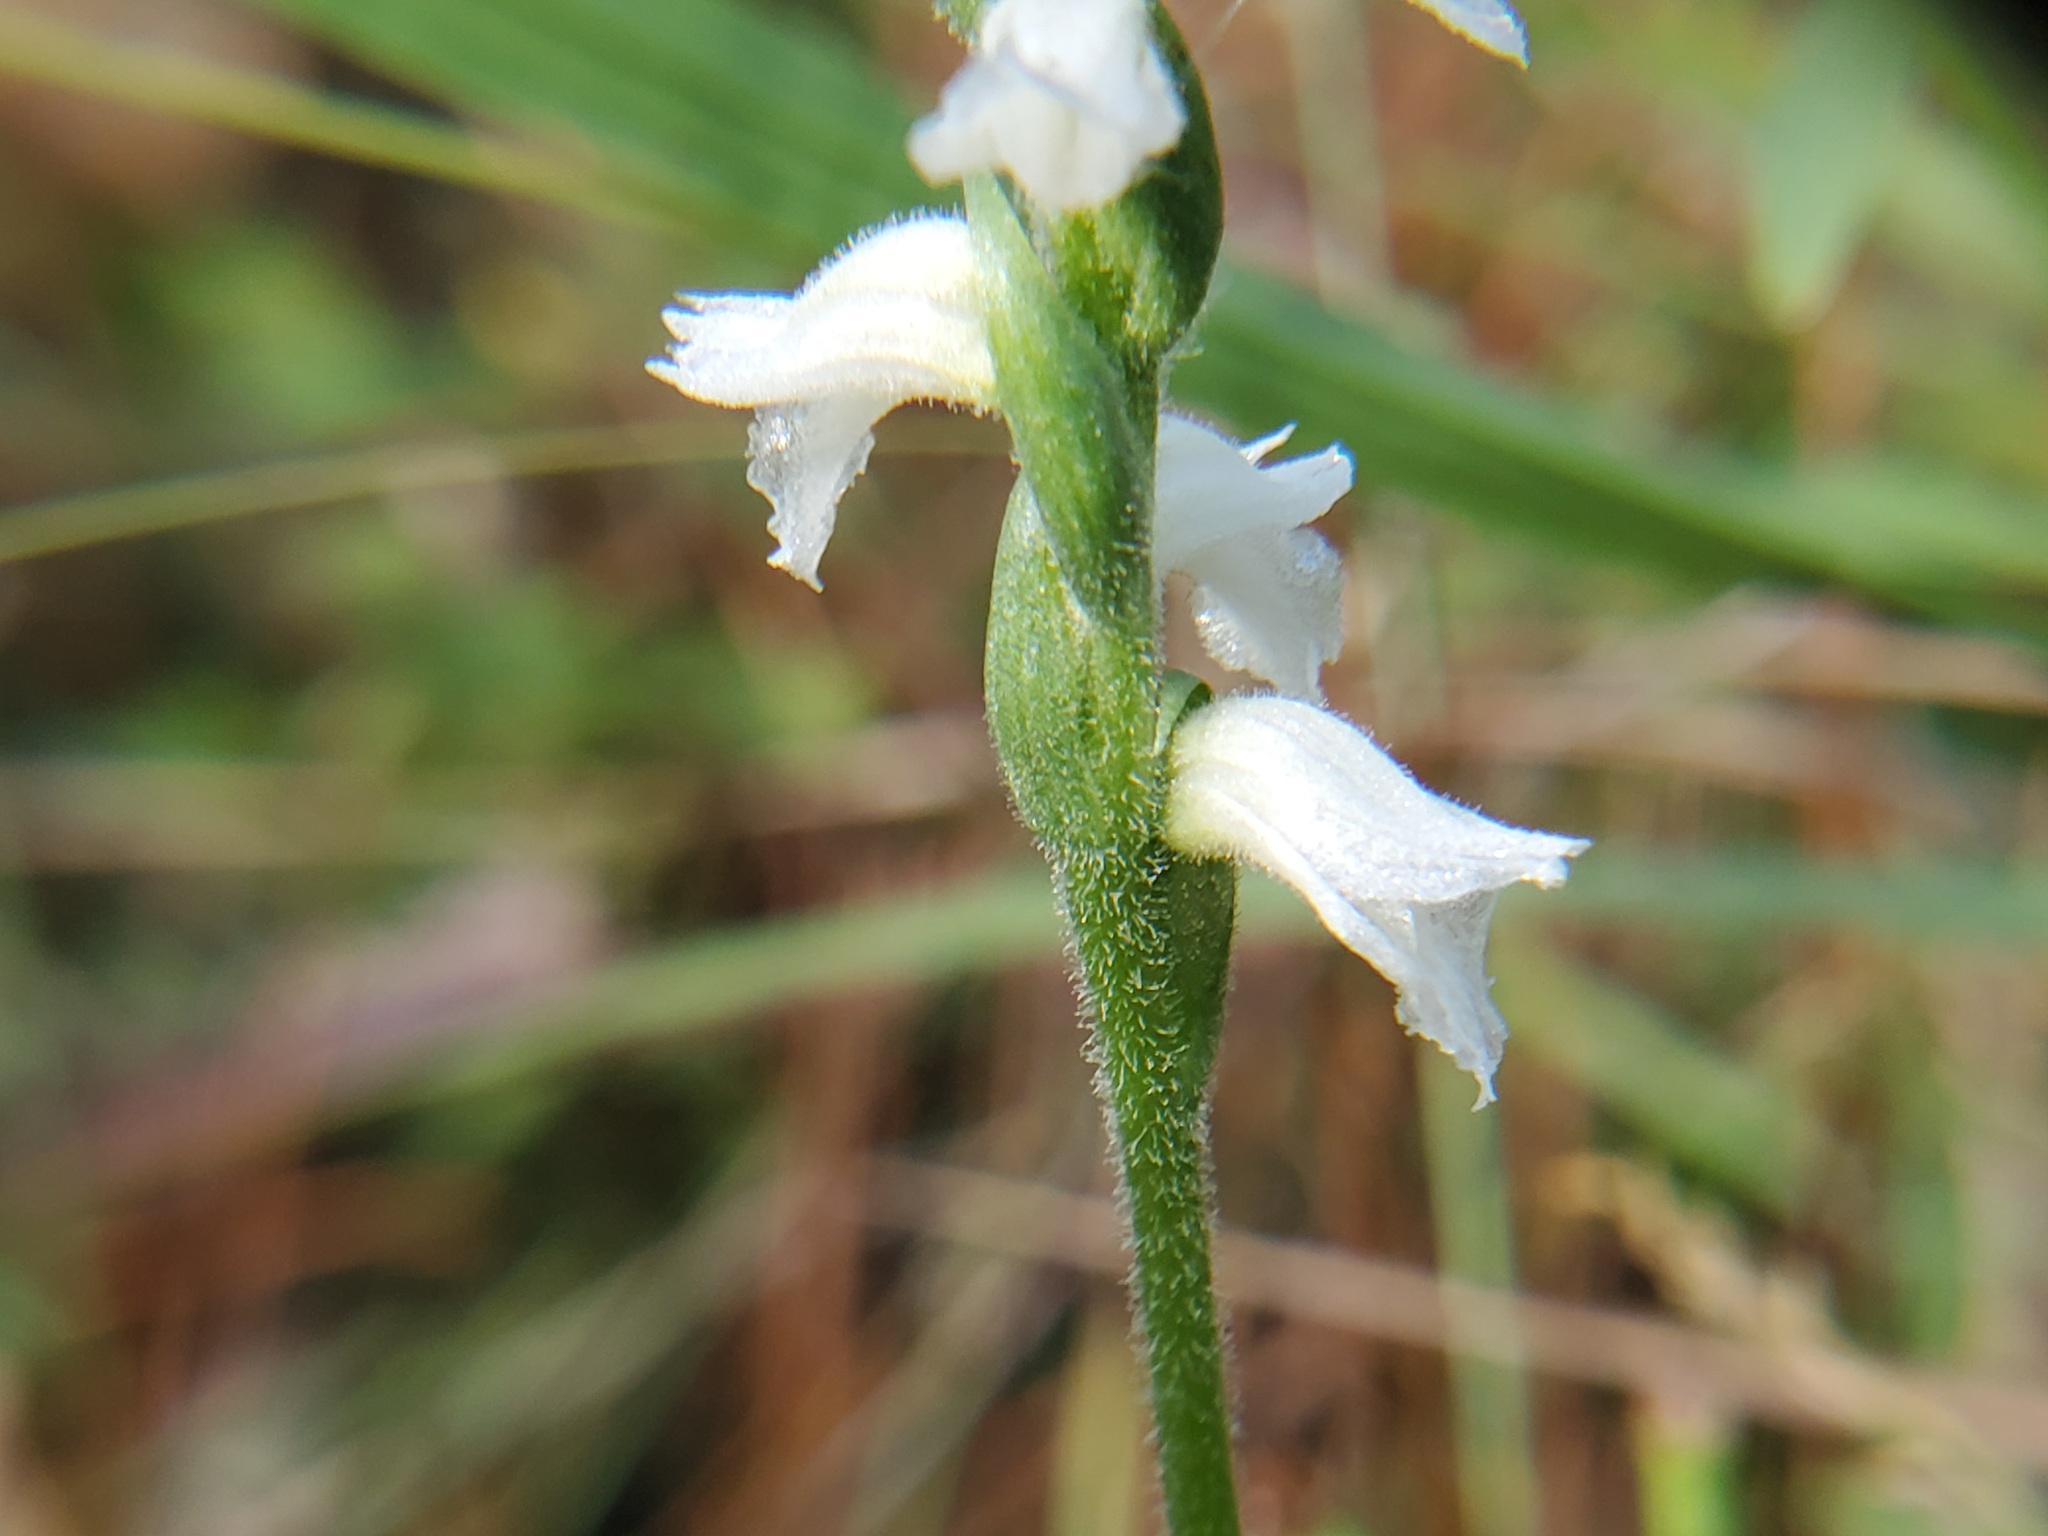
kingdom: Plantae
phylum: Tracheophyta
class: Liliopsida
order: Asparagales
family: Orchidaceae
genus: Spiranthes
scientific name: Spiranthes cernua
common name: Dropping ladies'-tresses
